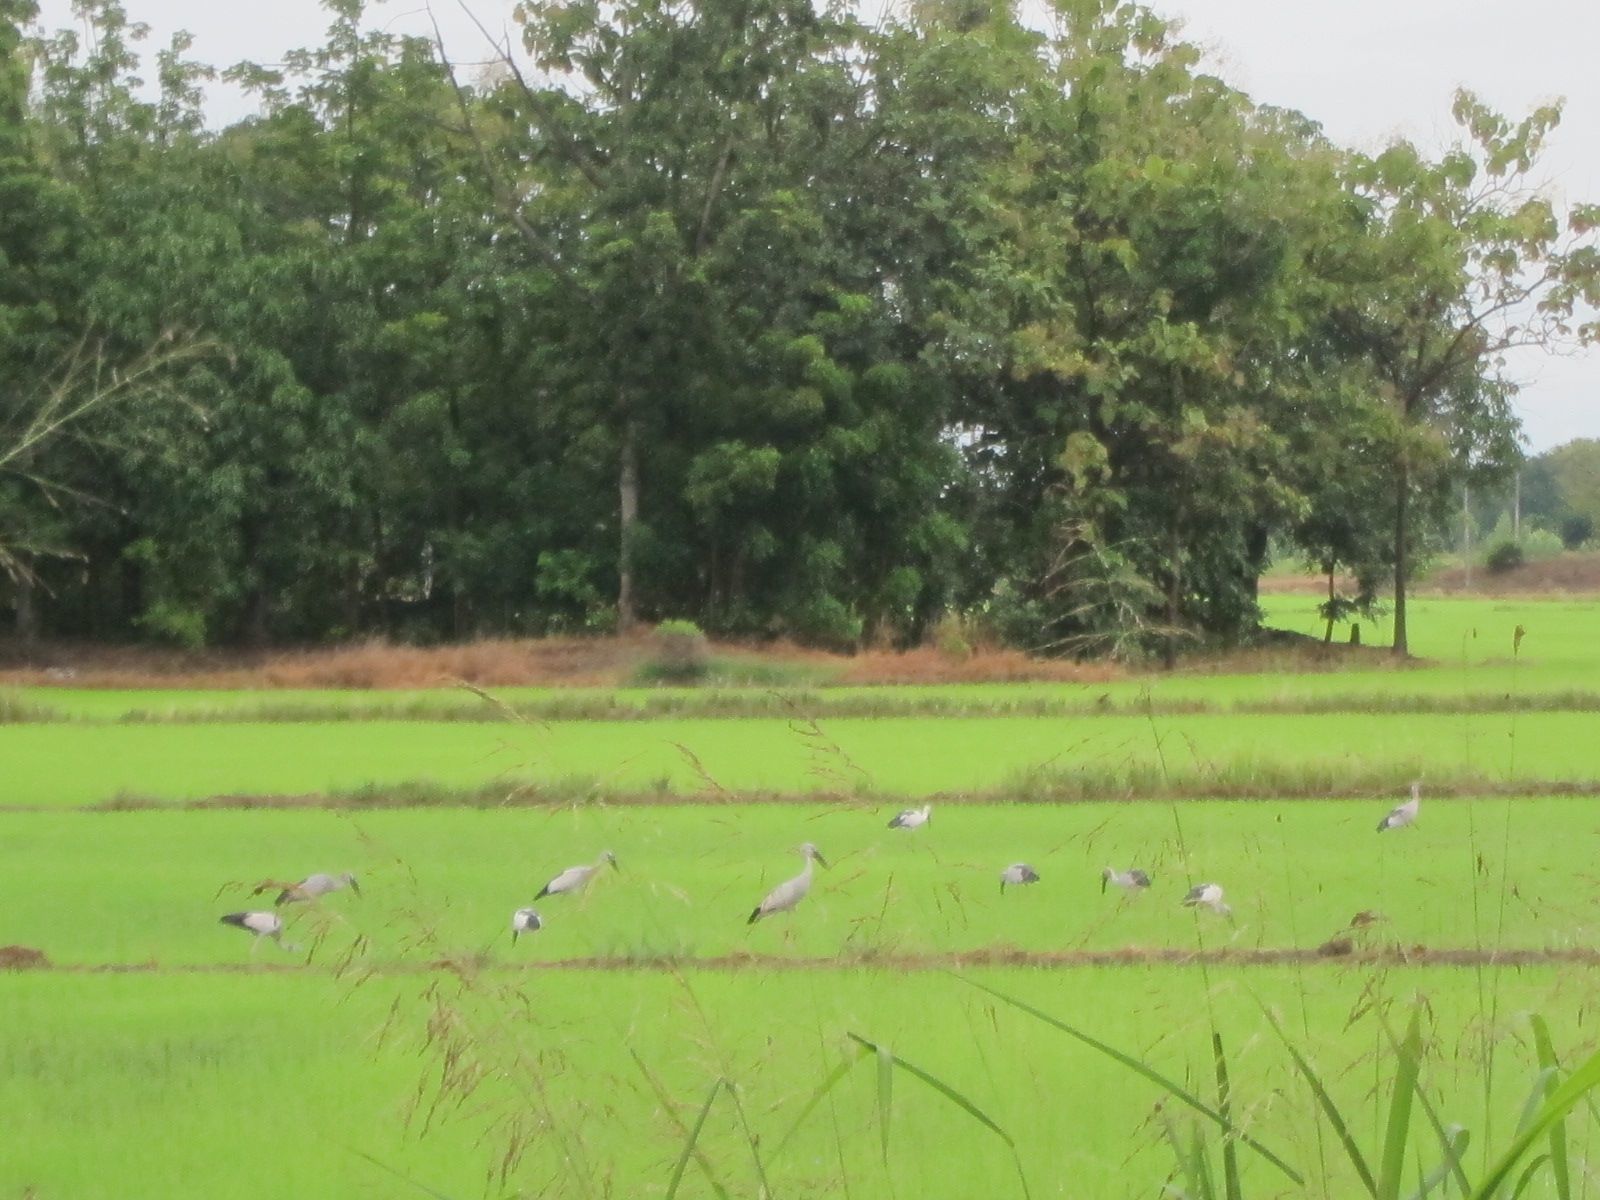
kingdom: Animalia
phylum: Chordata
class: Aves
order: Ciconiiformes
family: Ciconiidae
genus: Anastomus
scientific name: Anastomus oscitans
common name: Asian openbill
